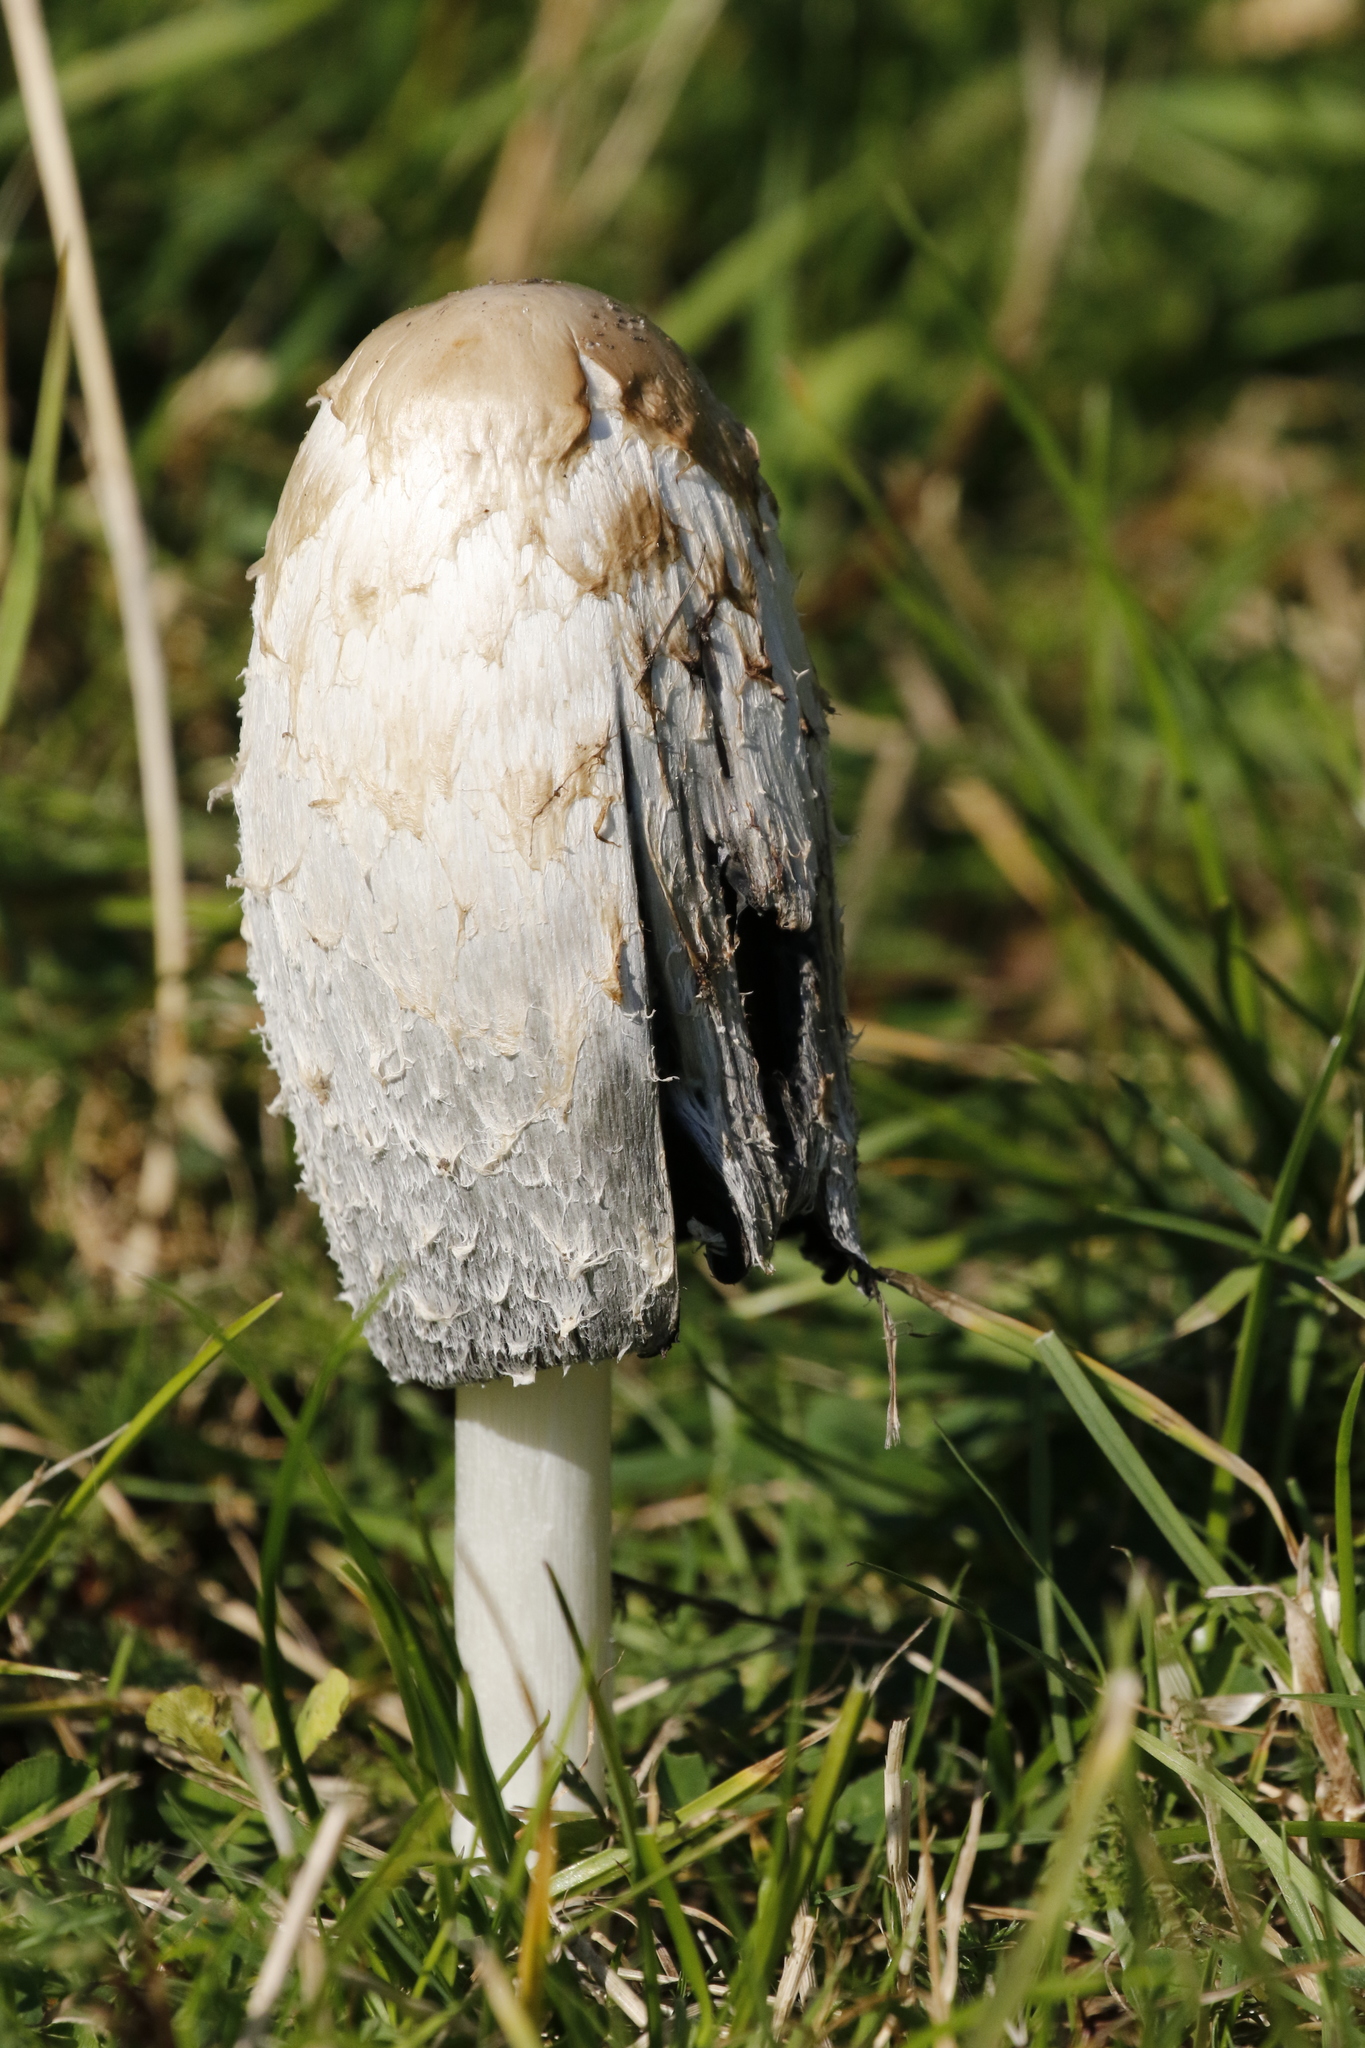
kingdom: Fungi
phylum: Basidiomycota
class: Agaricomycetes
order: Agaricales
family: Agaricaceae
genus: Coprinus
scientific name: Coprinus comatus
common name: Lawyer's wig
